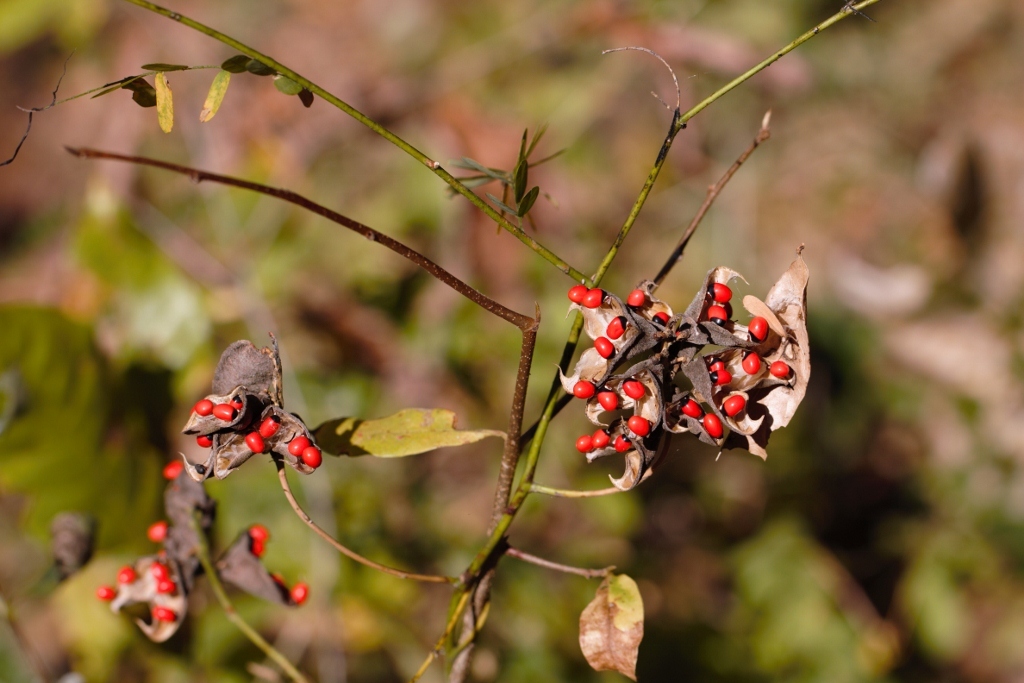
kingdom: Plantae
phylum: Tracheophyta
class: Magnoliopsida
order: Fabales
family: Fabaceae
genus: Abrus
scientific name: Abrus precatorius
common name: Rosarypea
